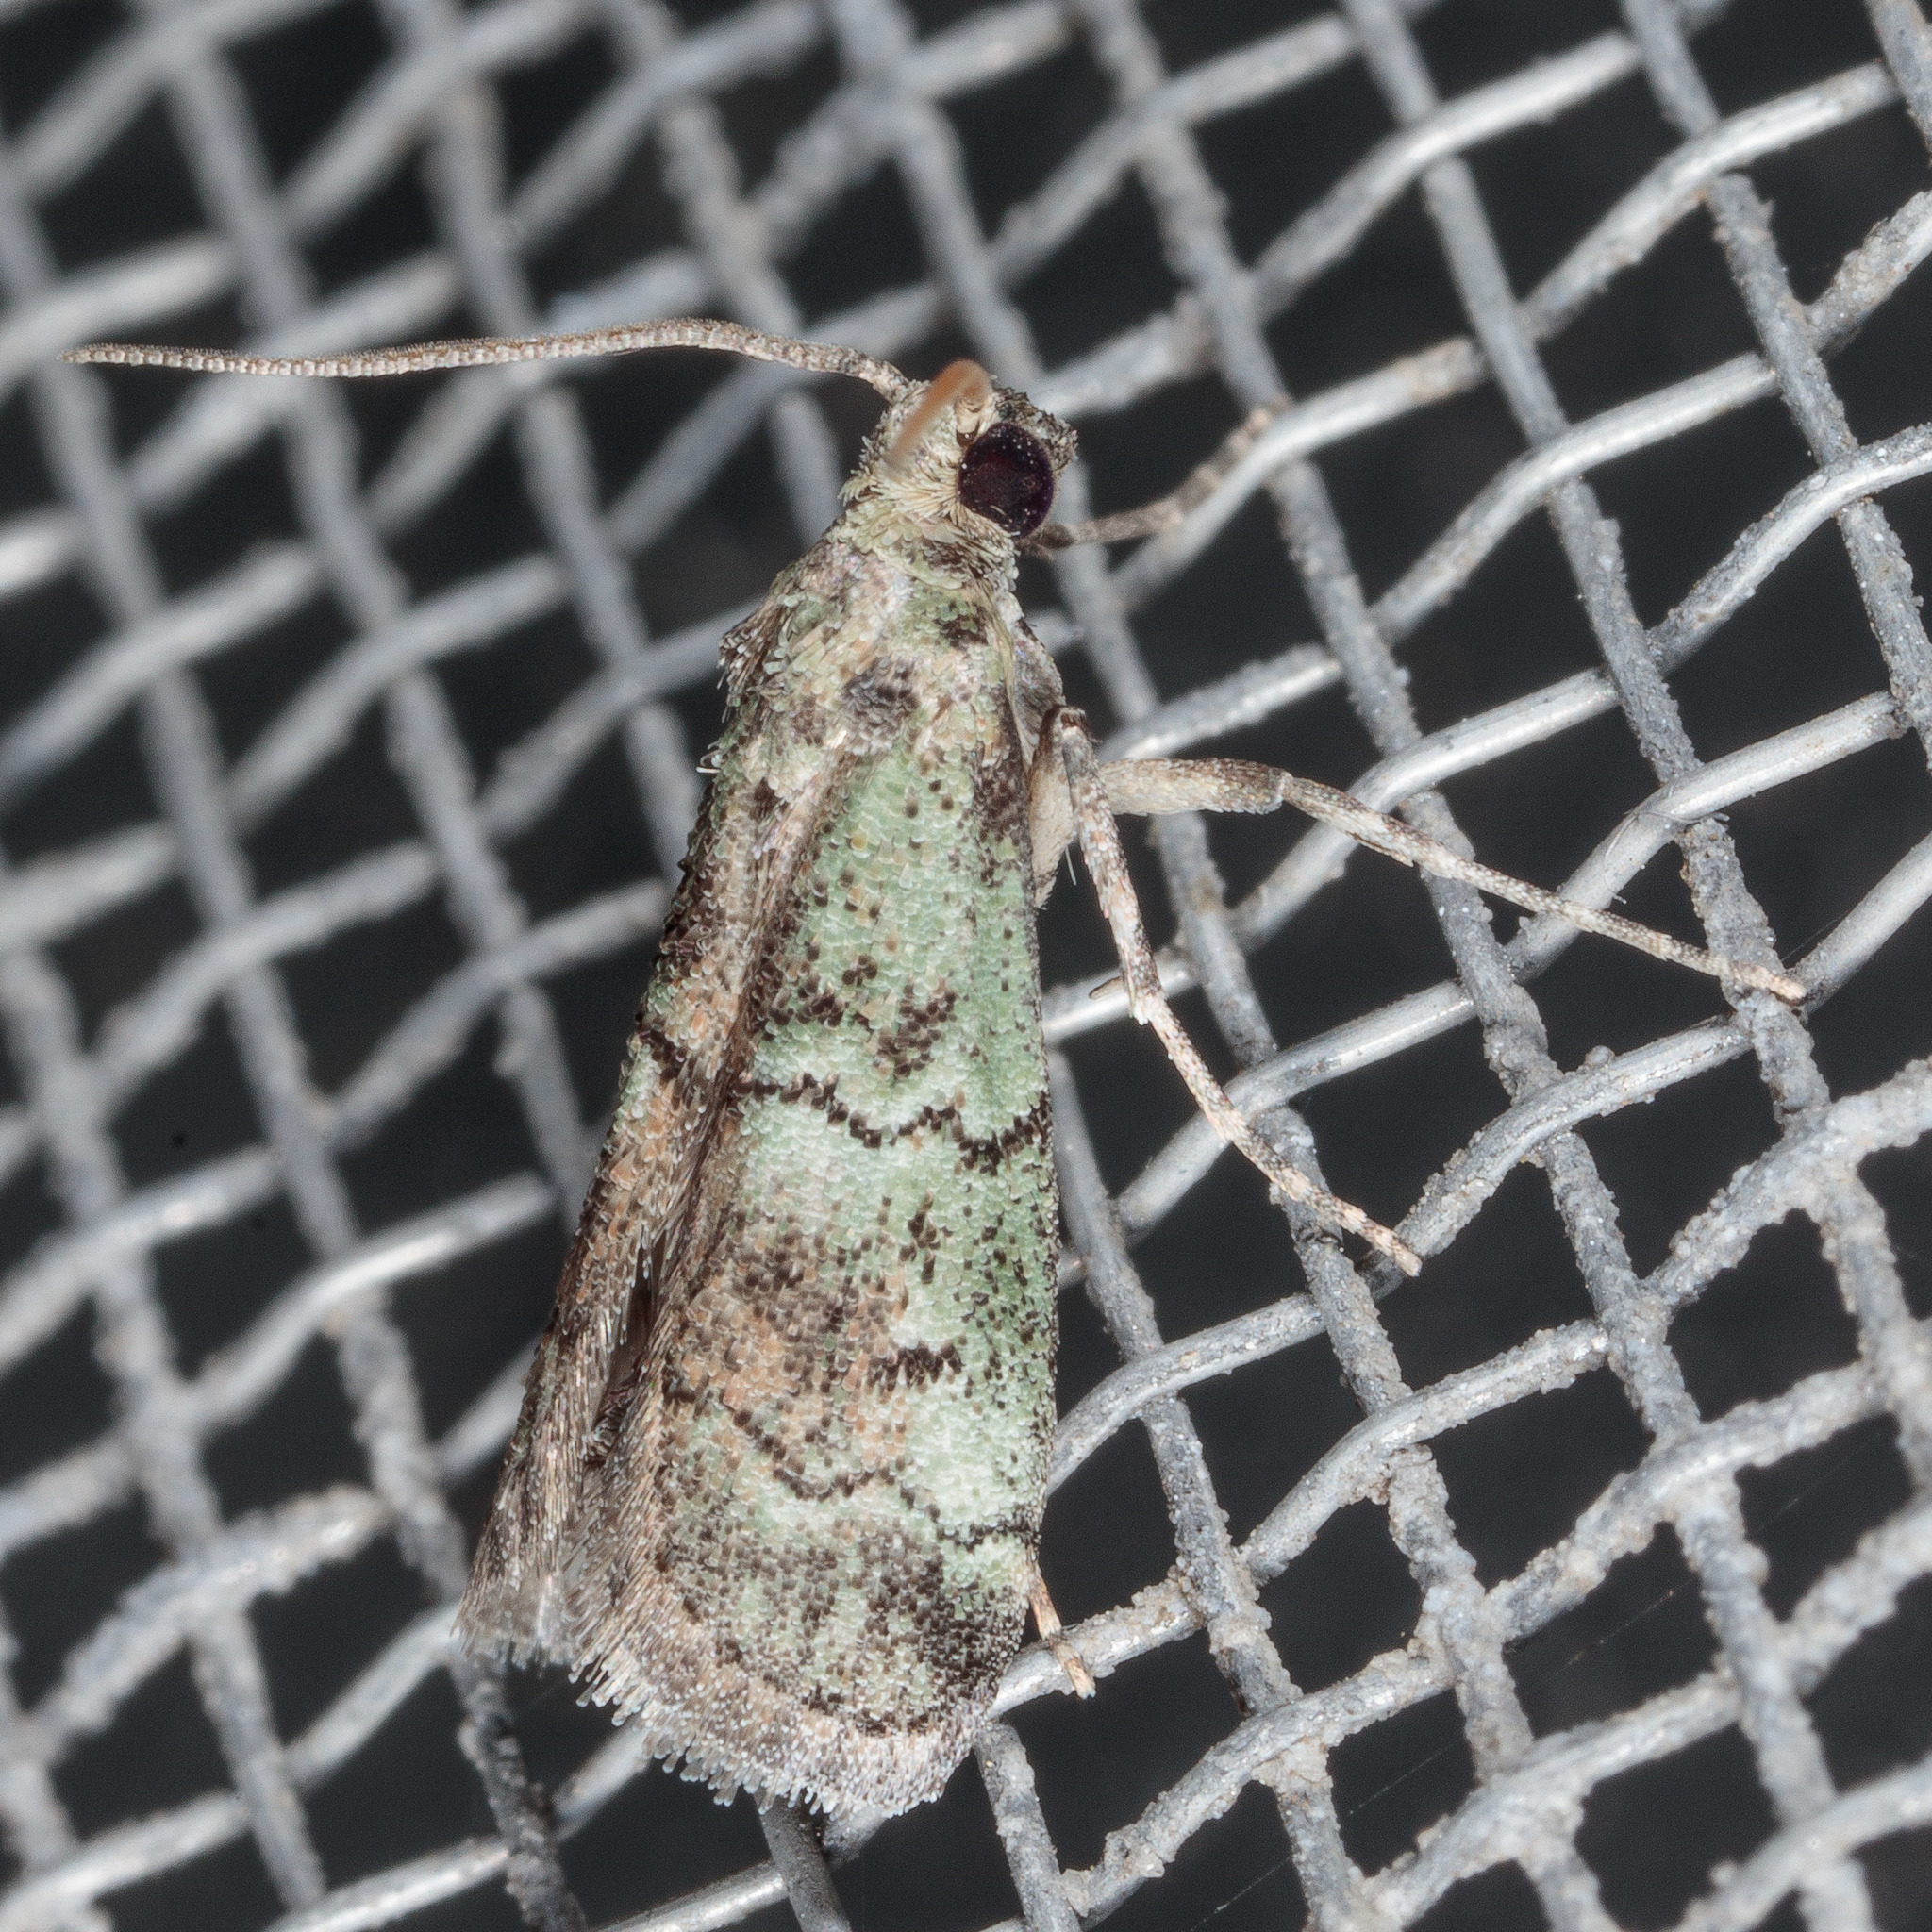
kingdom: Animalia
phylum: Arthropoda
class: Insecta
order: Lepidoptera
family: Pyralidae
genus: Cacotherapia
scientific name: Cacotherapia flexilinealis
